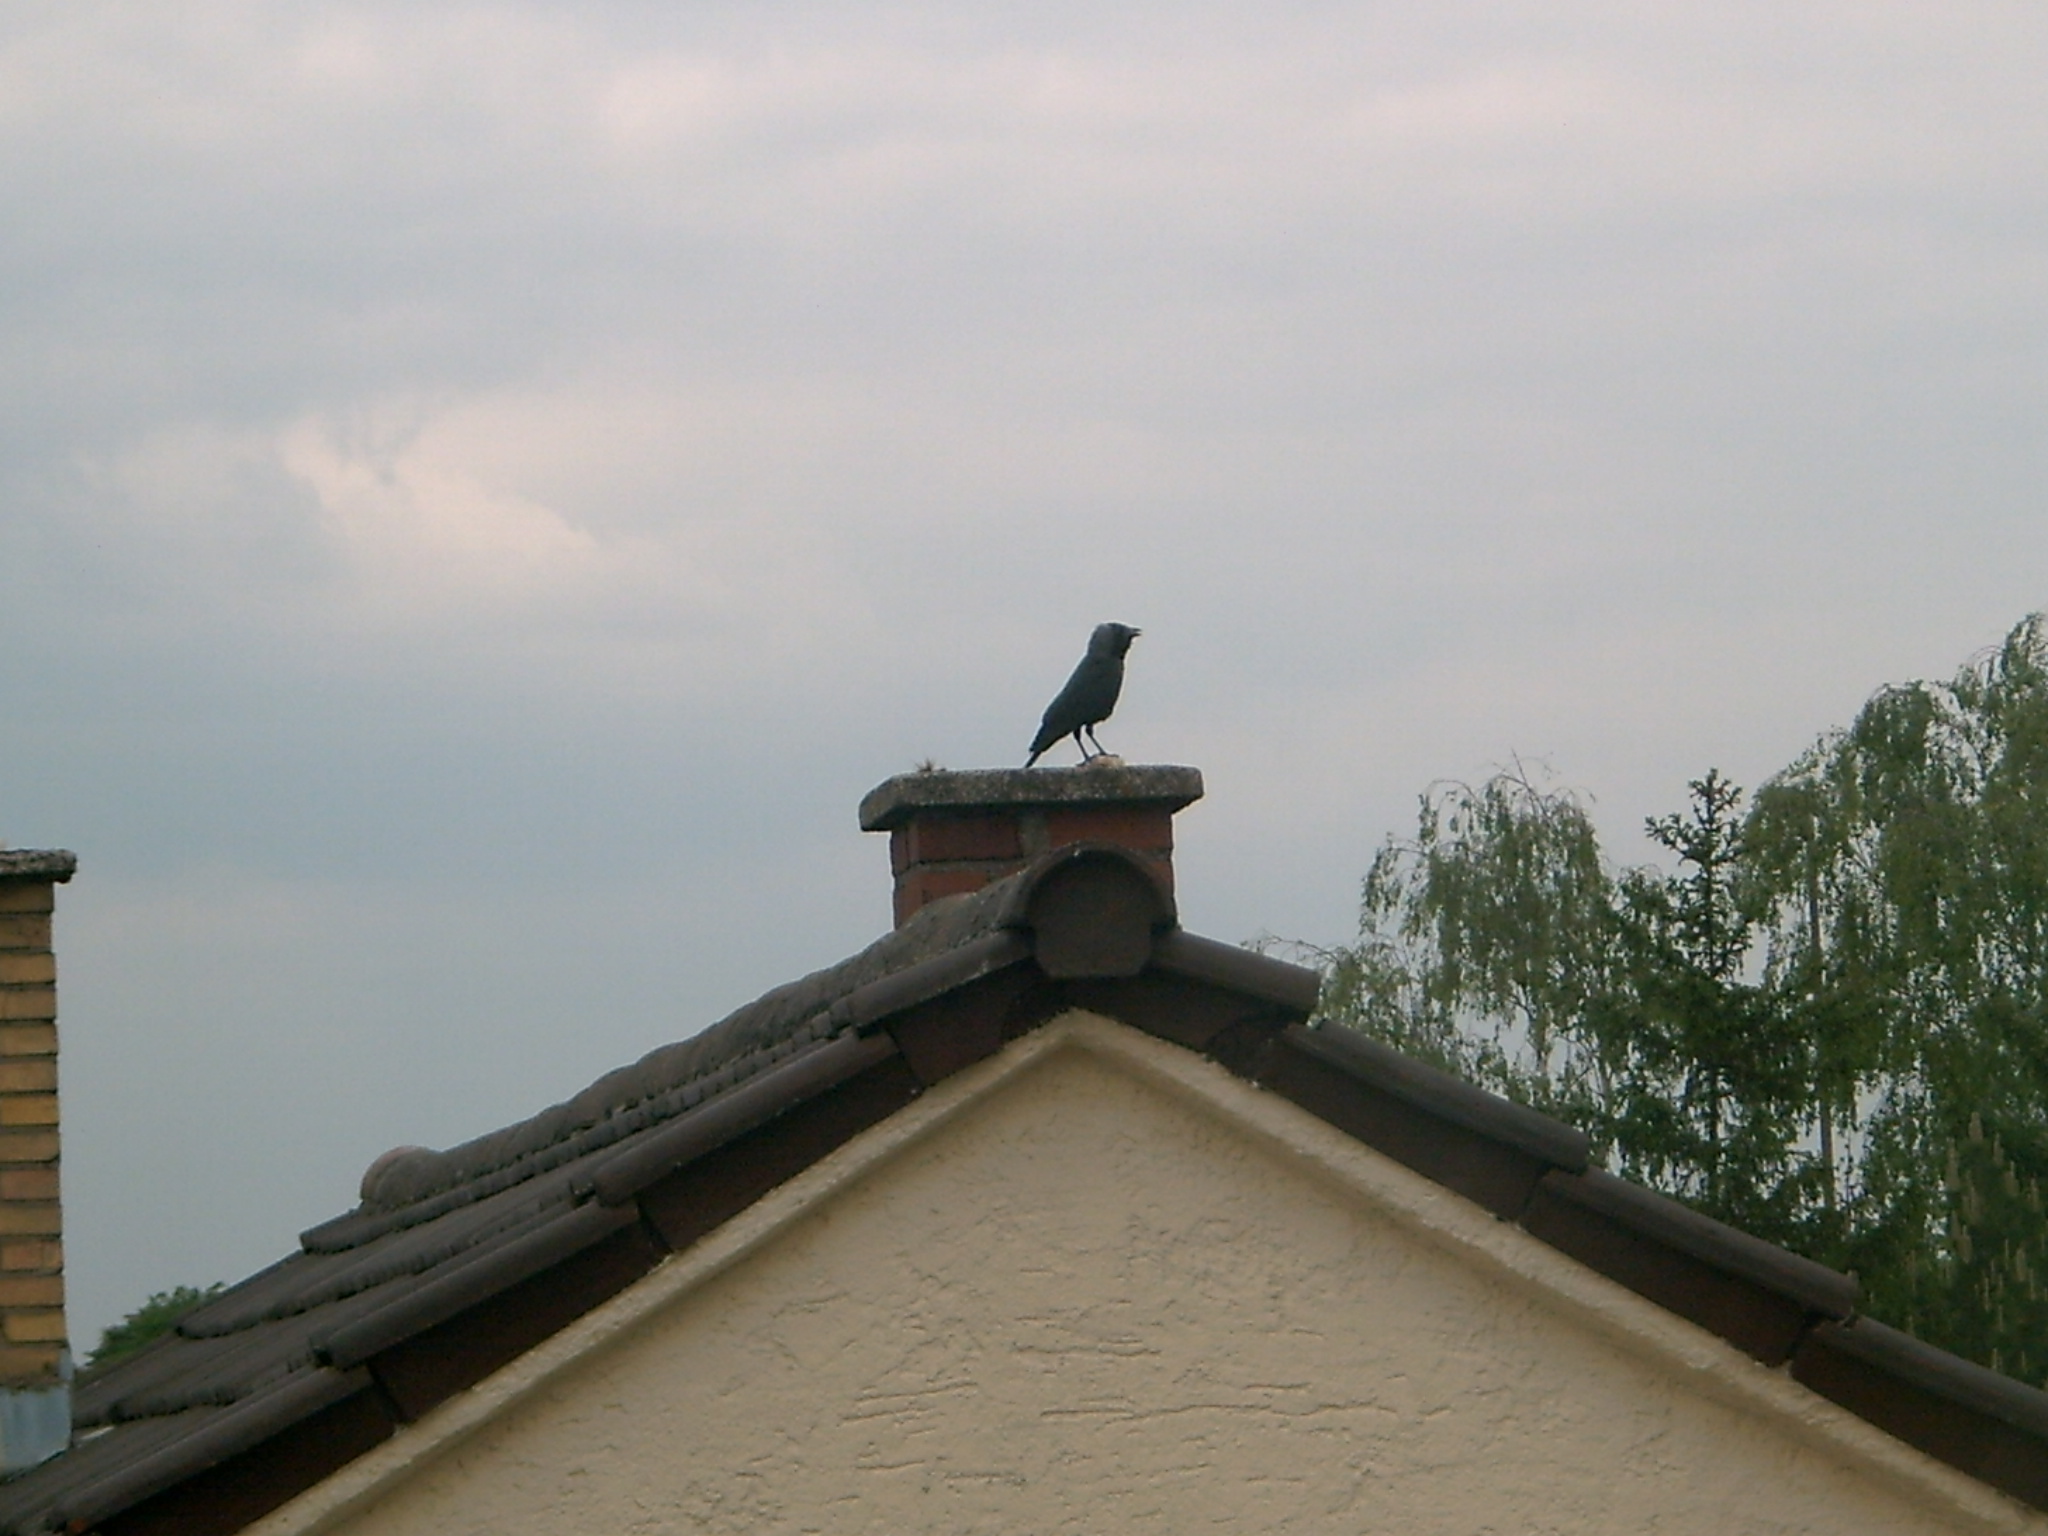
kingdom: Animalia
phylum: Chordata
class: Aves
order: Passeriformes
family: Corvidae
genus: Coloeus
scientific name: Coloeus monedula
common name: Western jackdaw
